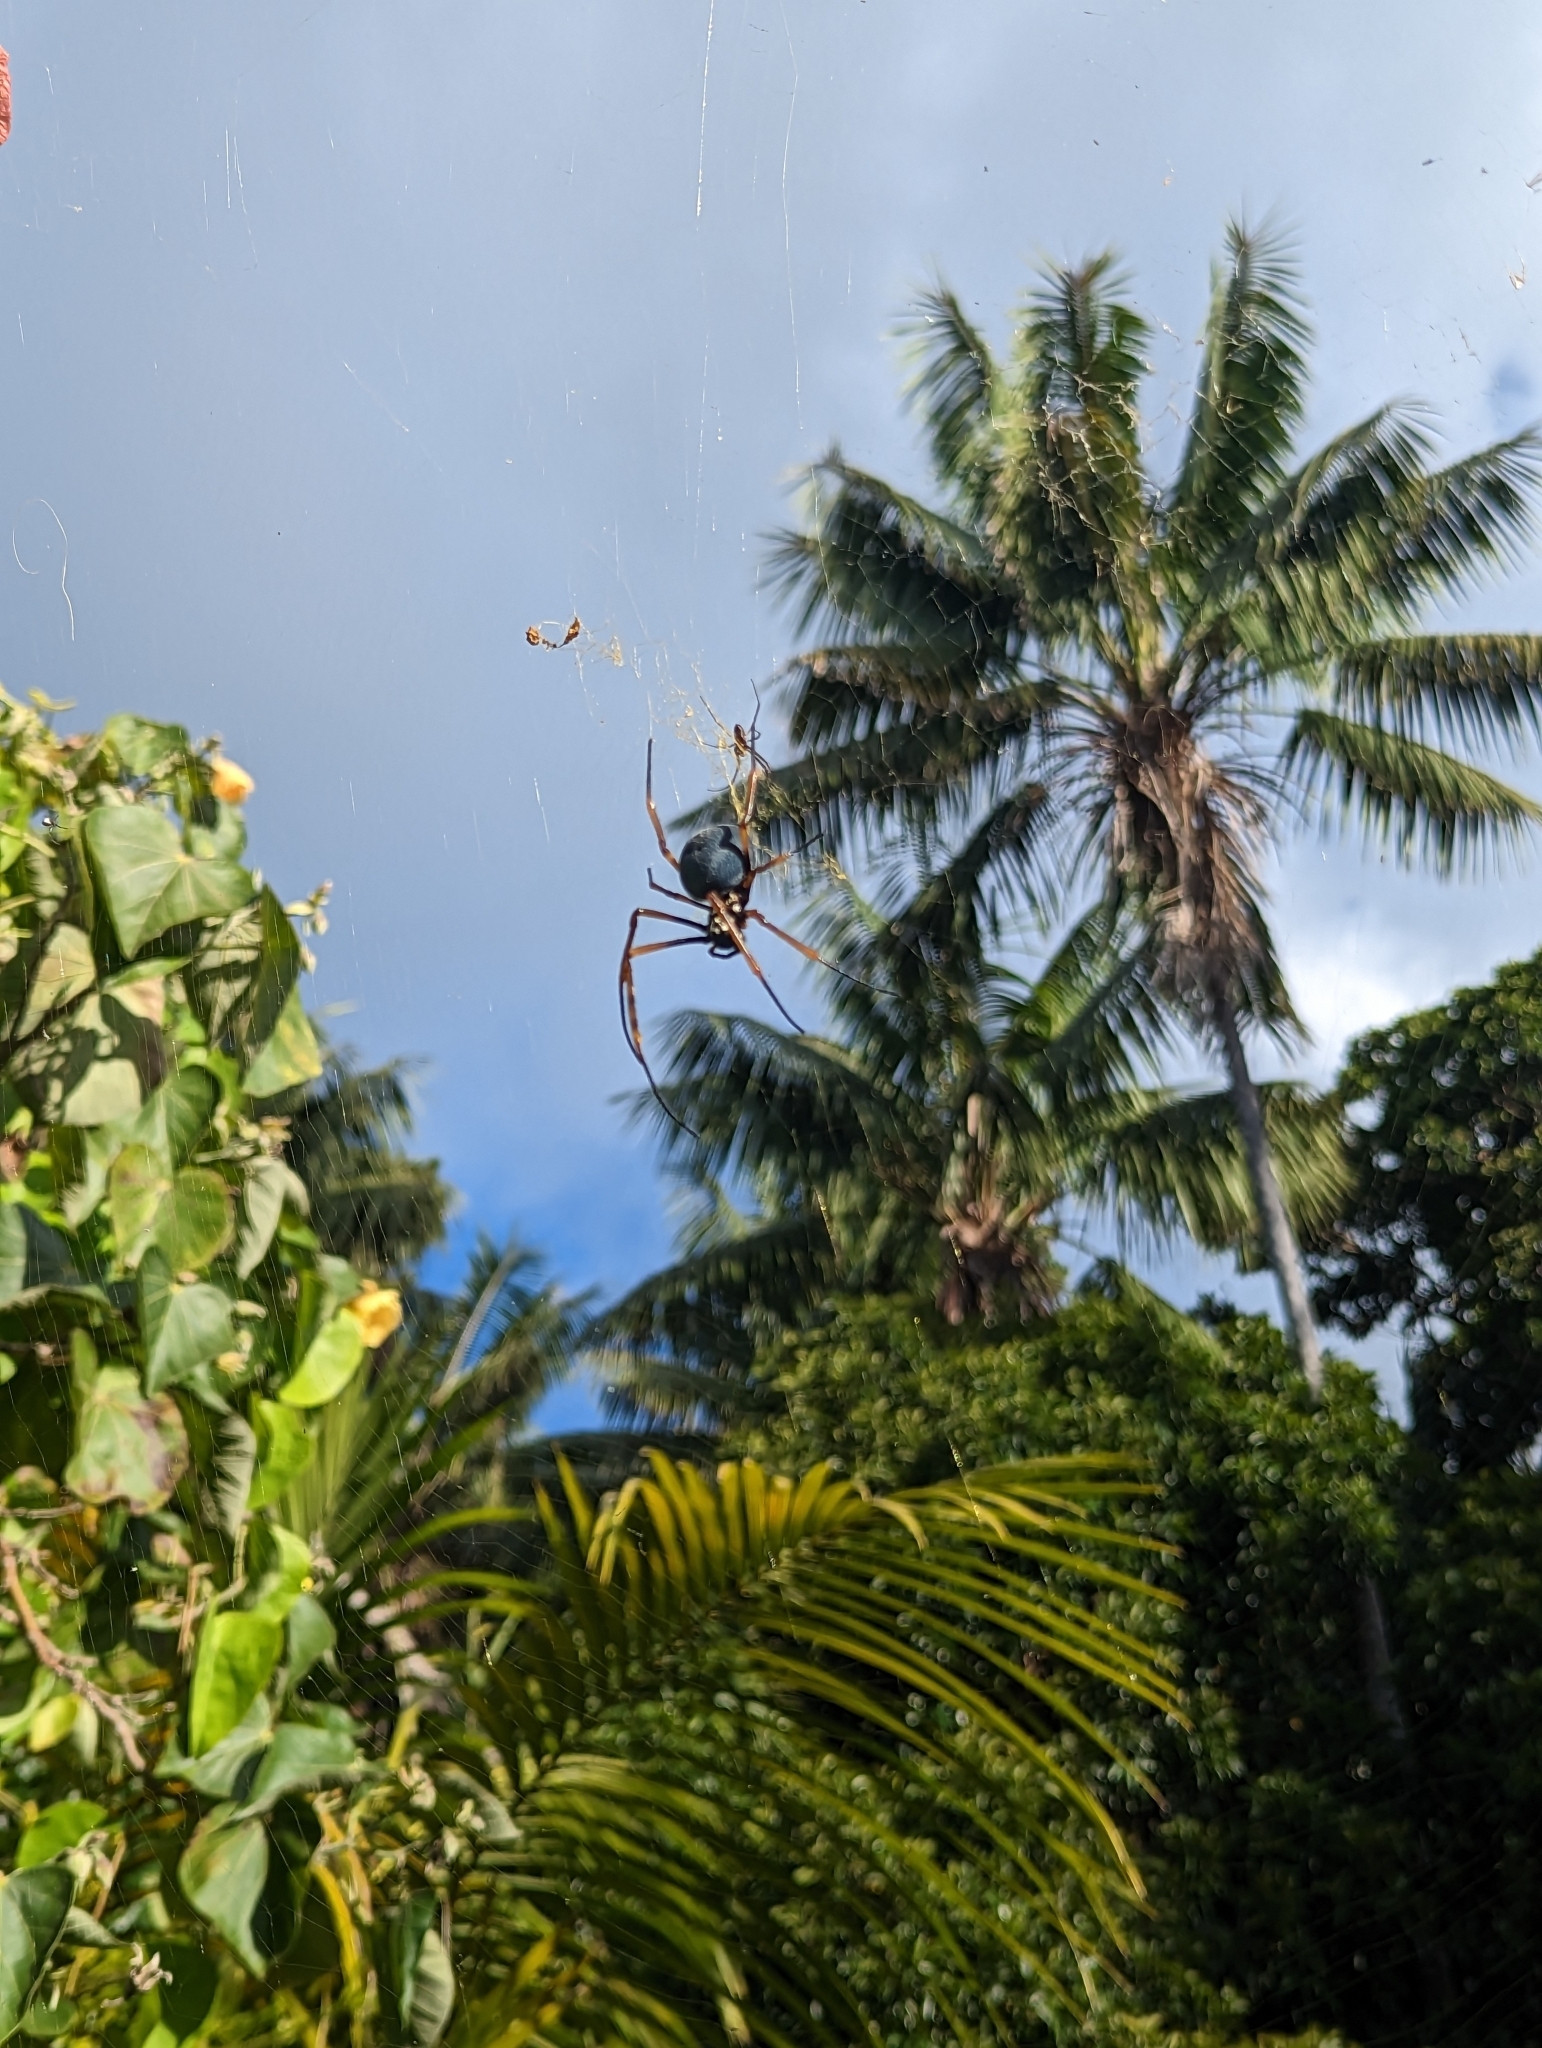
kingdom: Animalia
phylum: Arthropoda
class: Arachnida
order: Araneae
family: Araneidae
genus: Trichonephila
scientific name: Trichonephila plumipes
